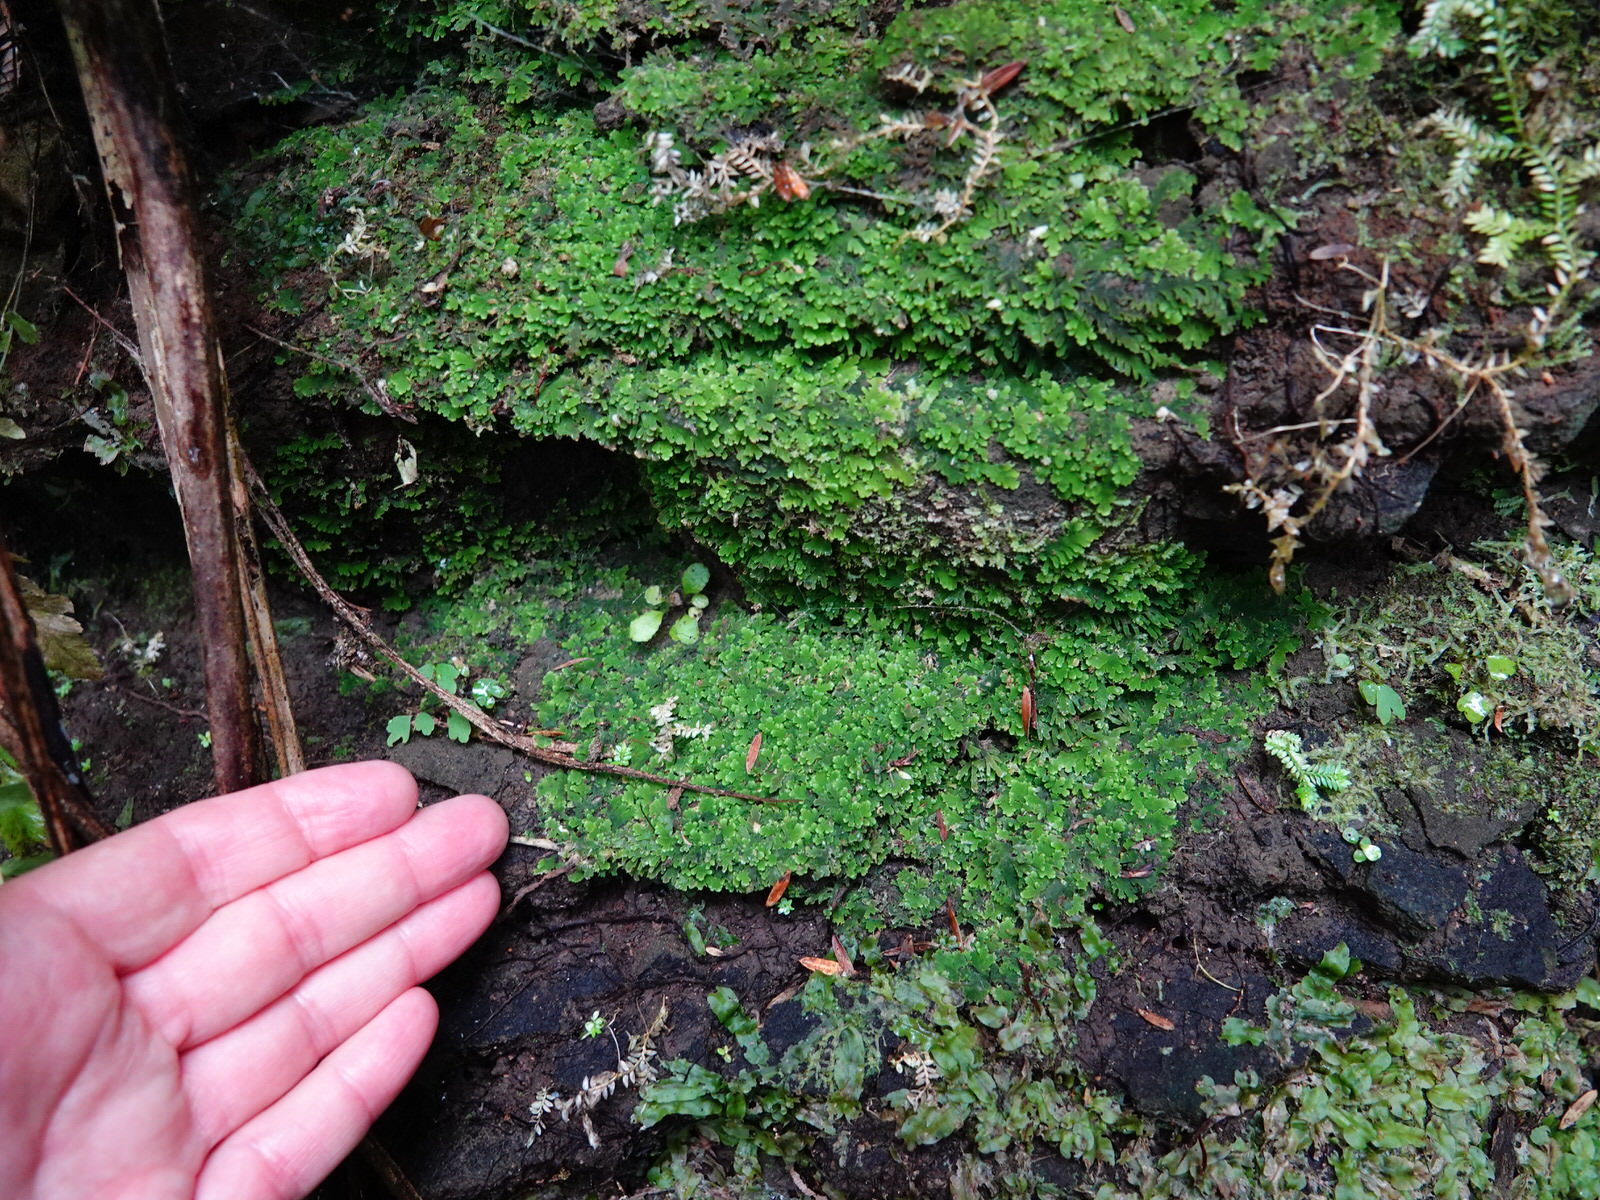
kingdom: Plantae
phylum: Marchantiophyta
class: Jungermanniopsida
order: Metzgeriales
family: Aneuraceae
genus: Riccardia
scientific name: Riccardia colensoi
